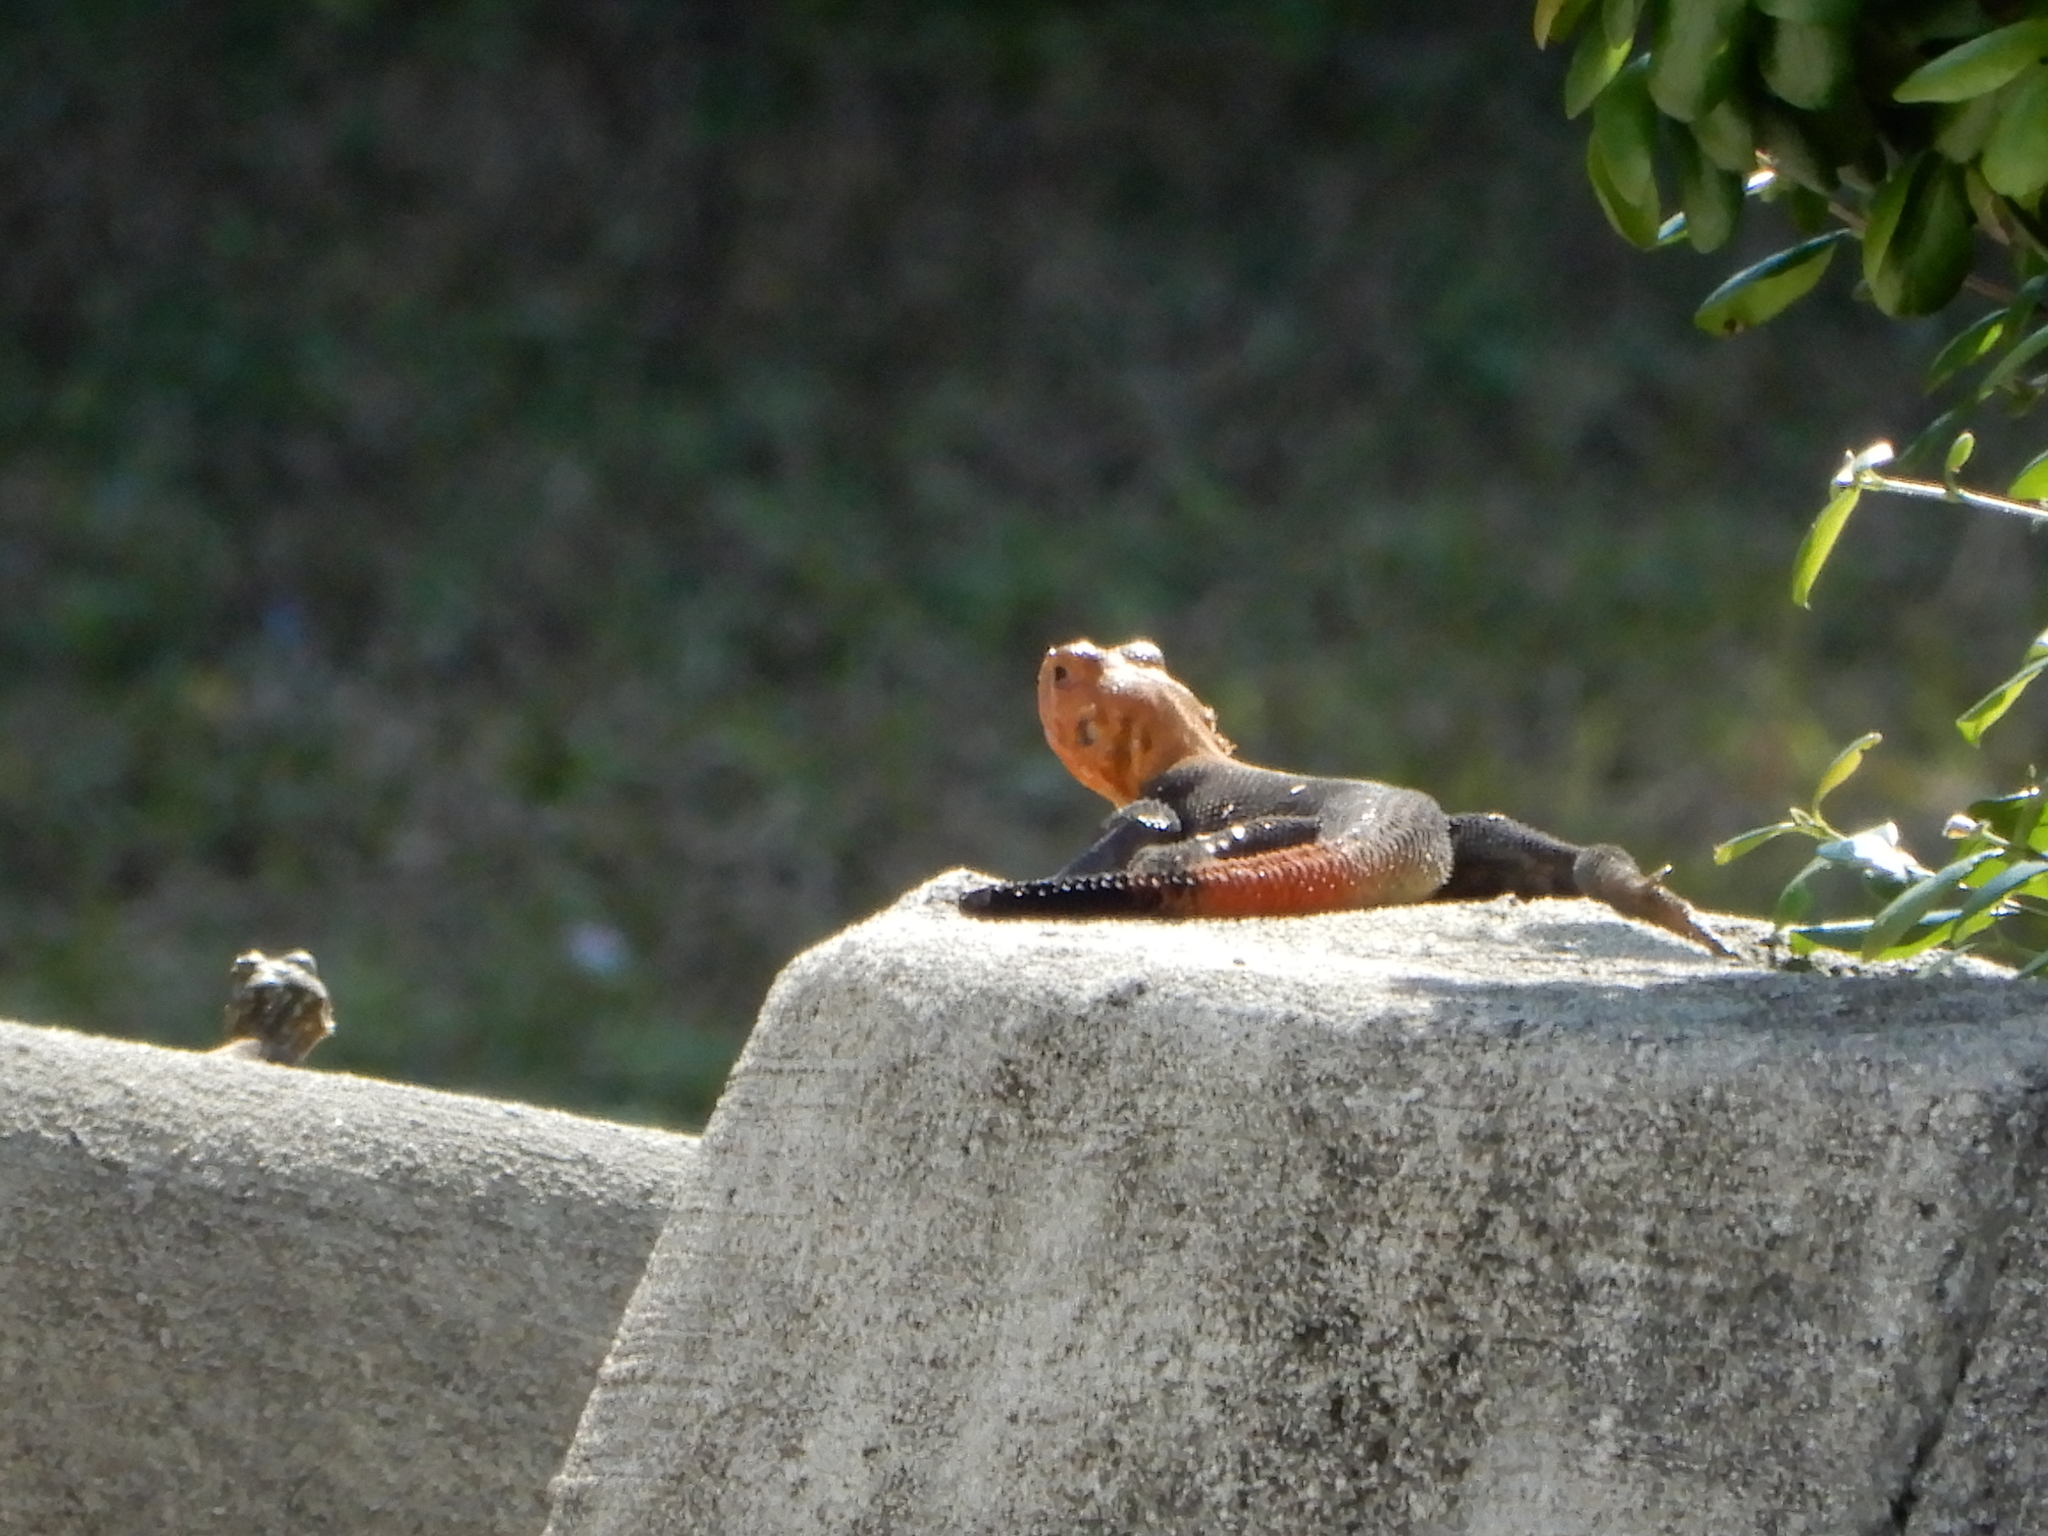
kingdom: Animalia
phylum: Chordata
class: Squamata
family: Agamidae
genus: Agama
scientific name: Agama picticauda
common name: Red-headed agama
